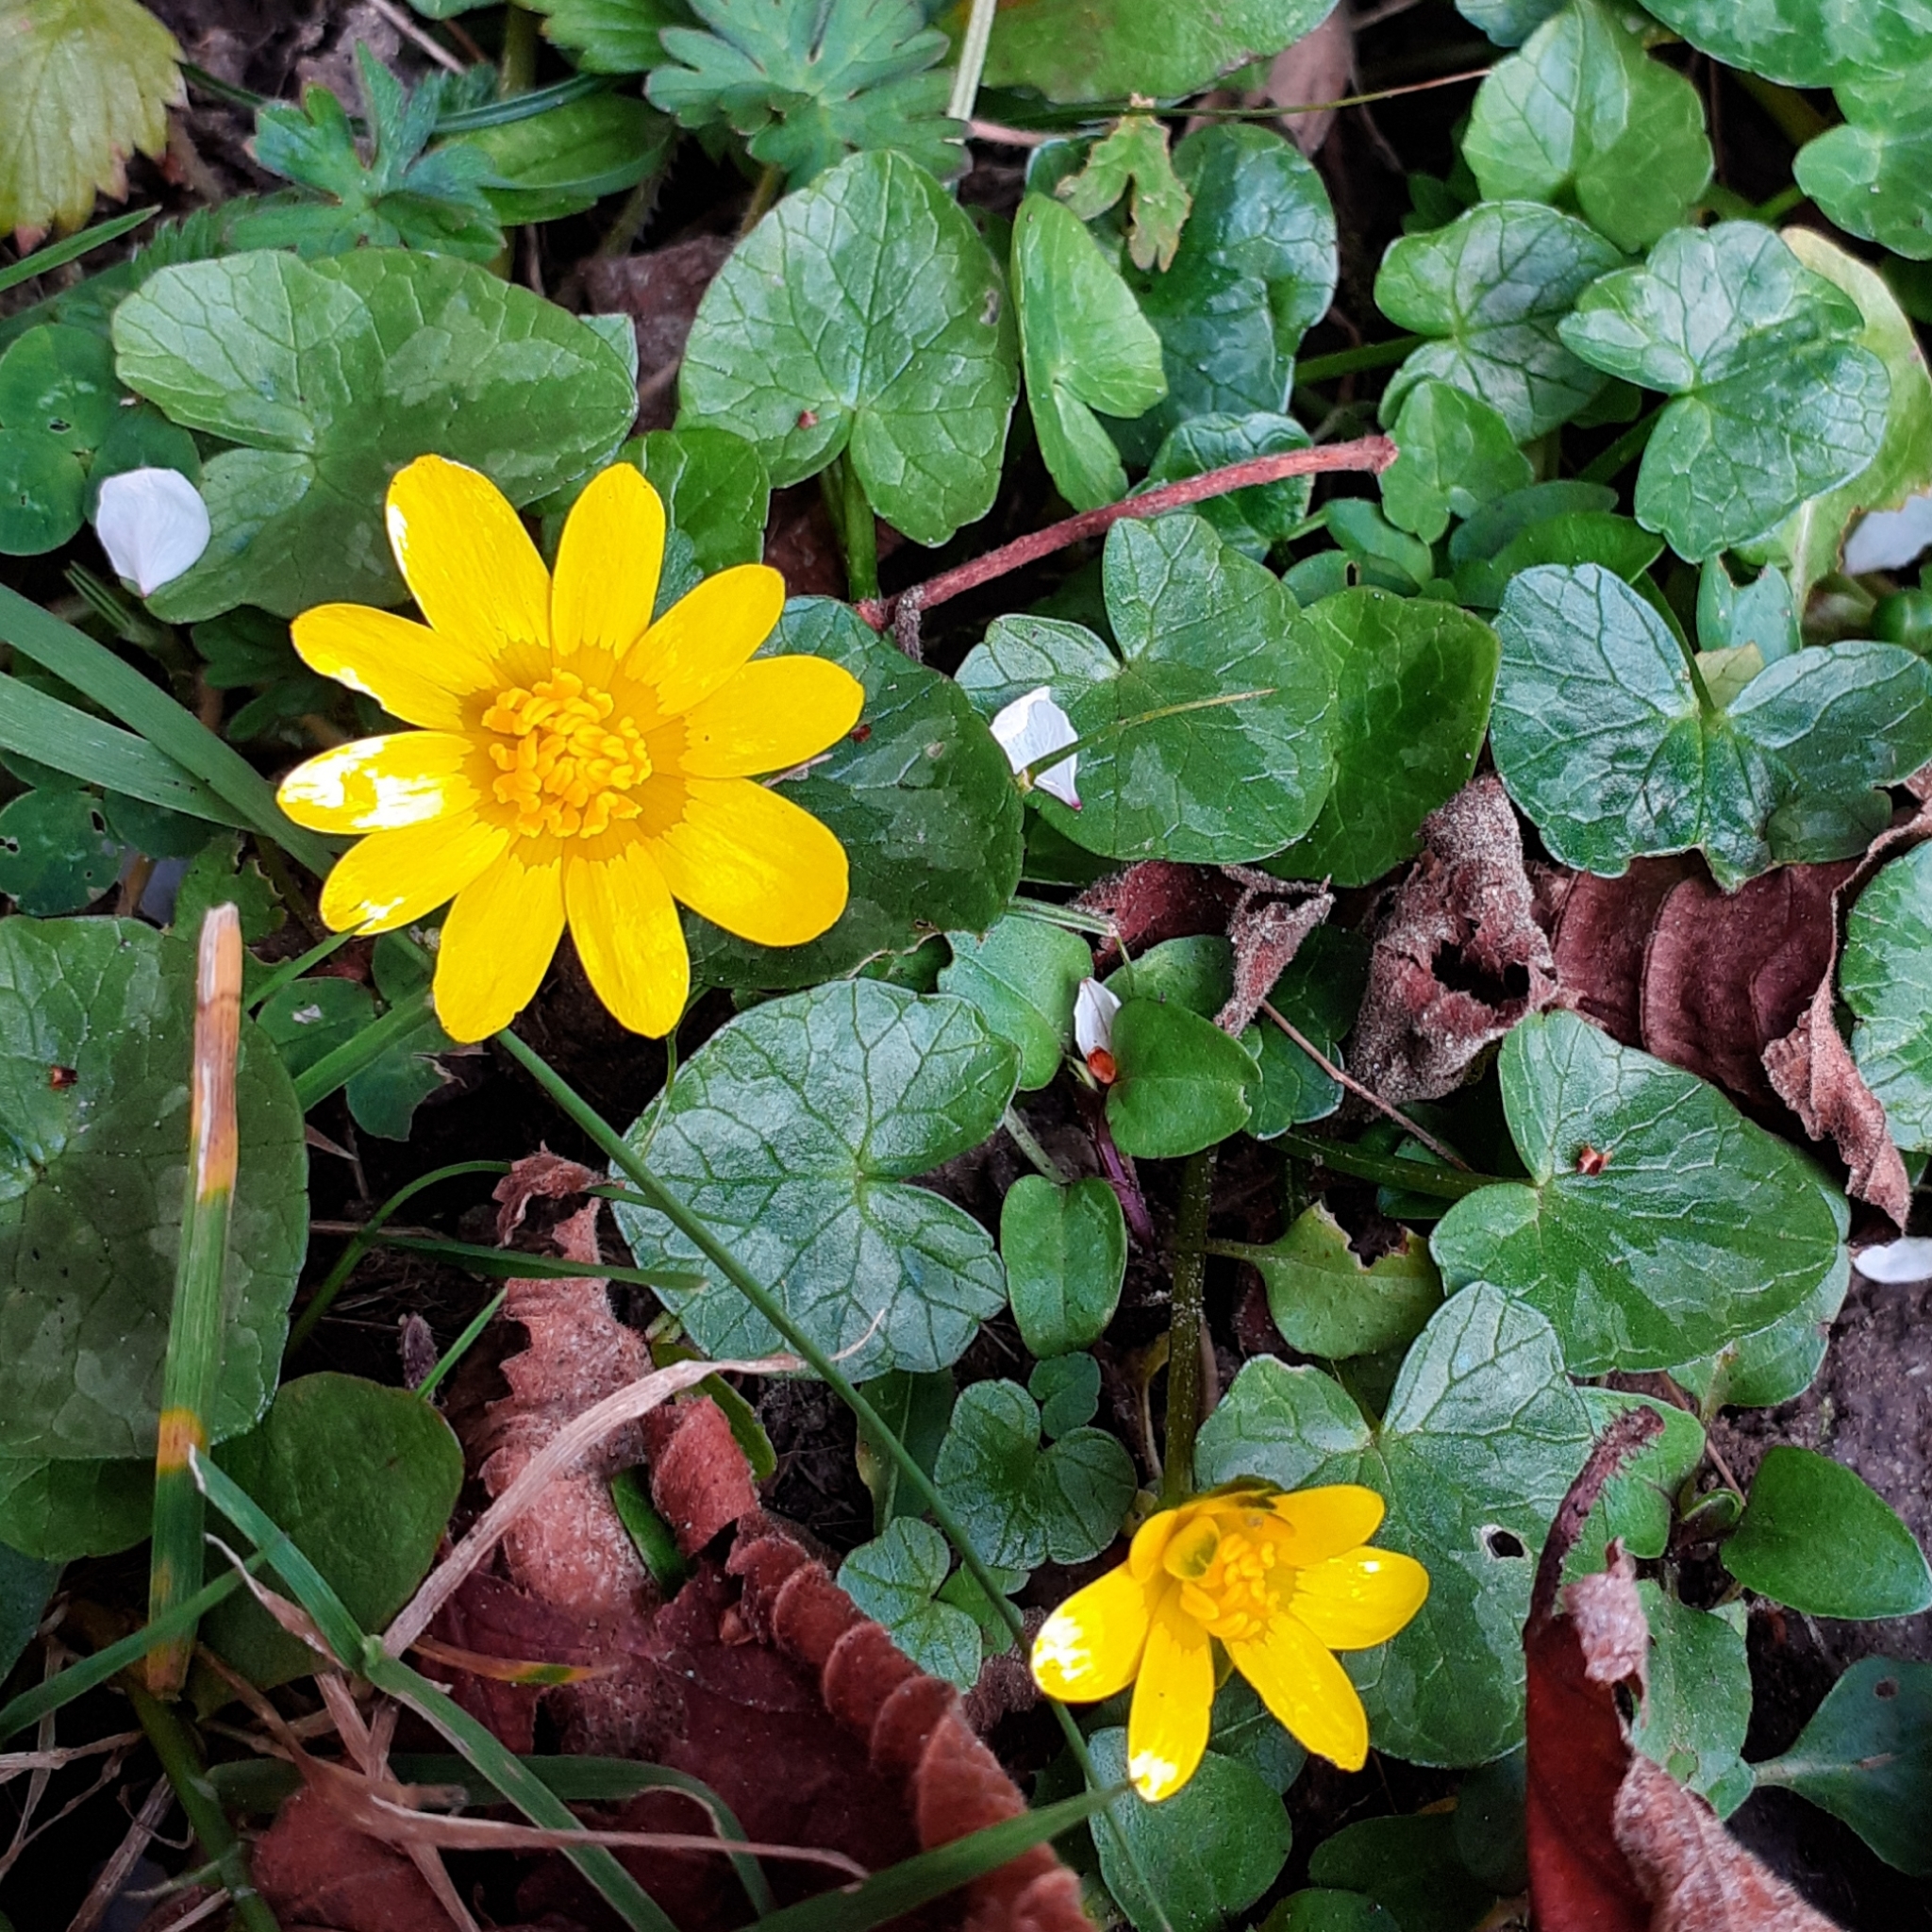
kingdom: Plantae
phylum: Tracheophyta
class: Magnoliopsida
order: Ranunculales
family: Ranunculaceae
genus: Ficaria
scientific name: Ficaria verna
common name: Lesser celandine
